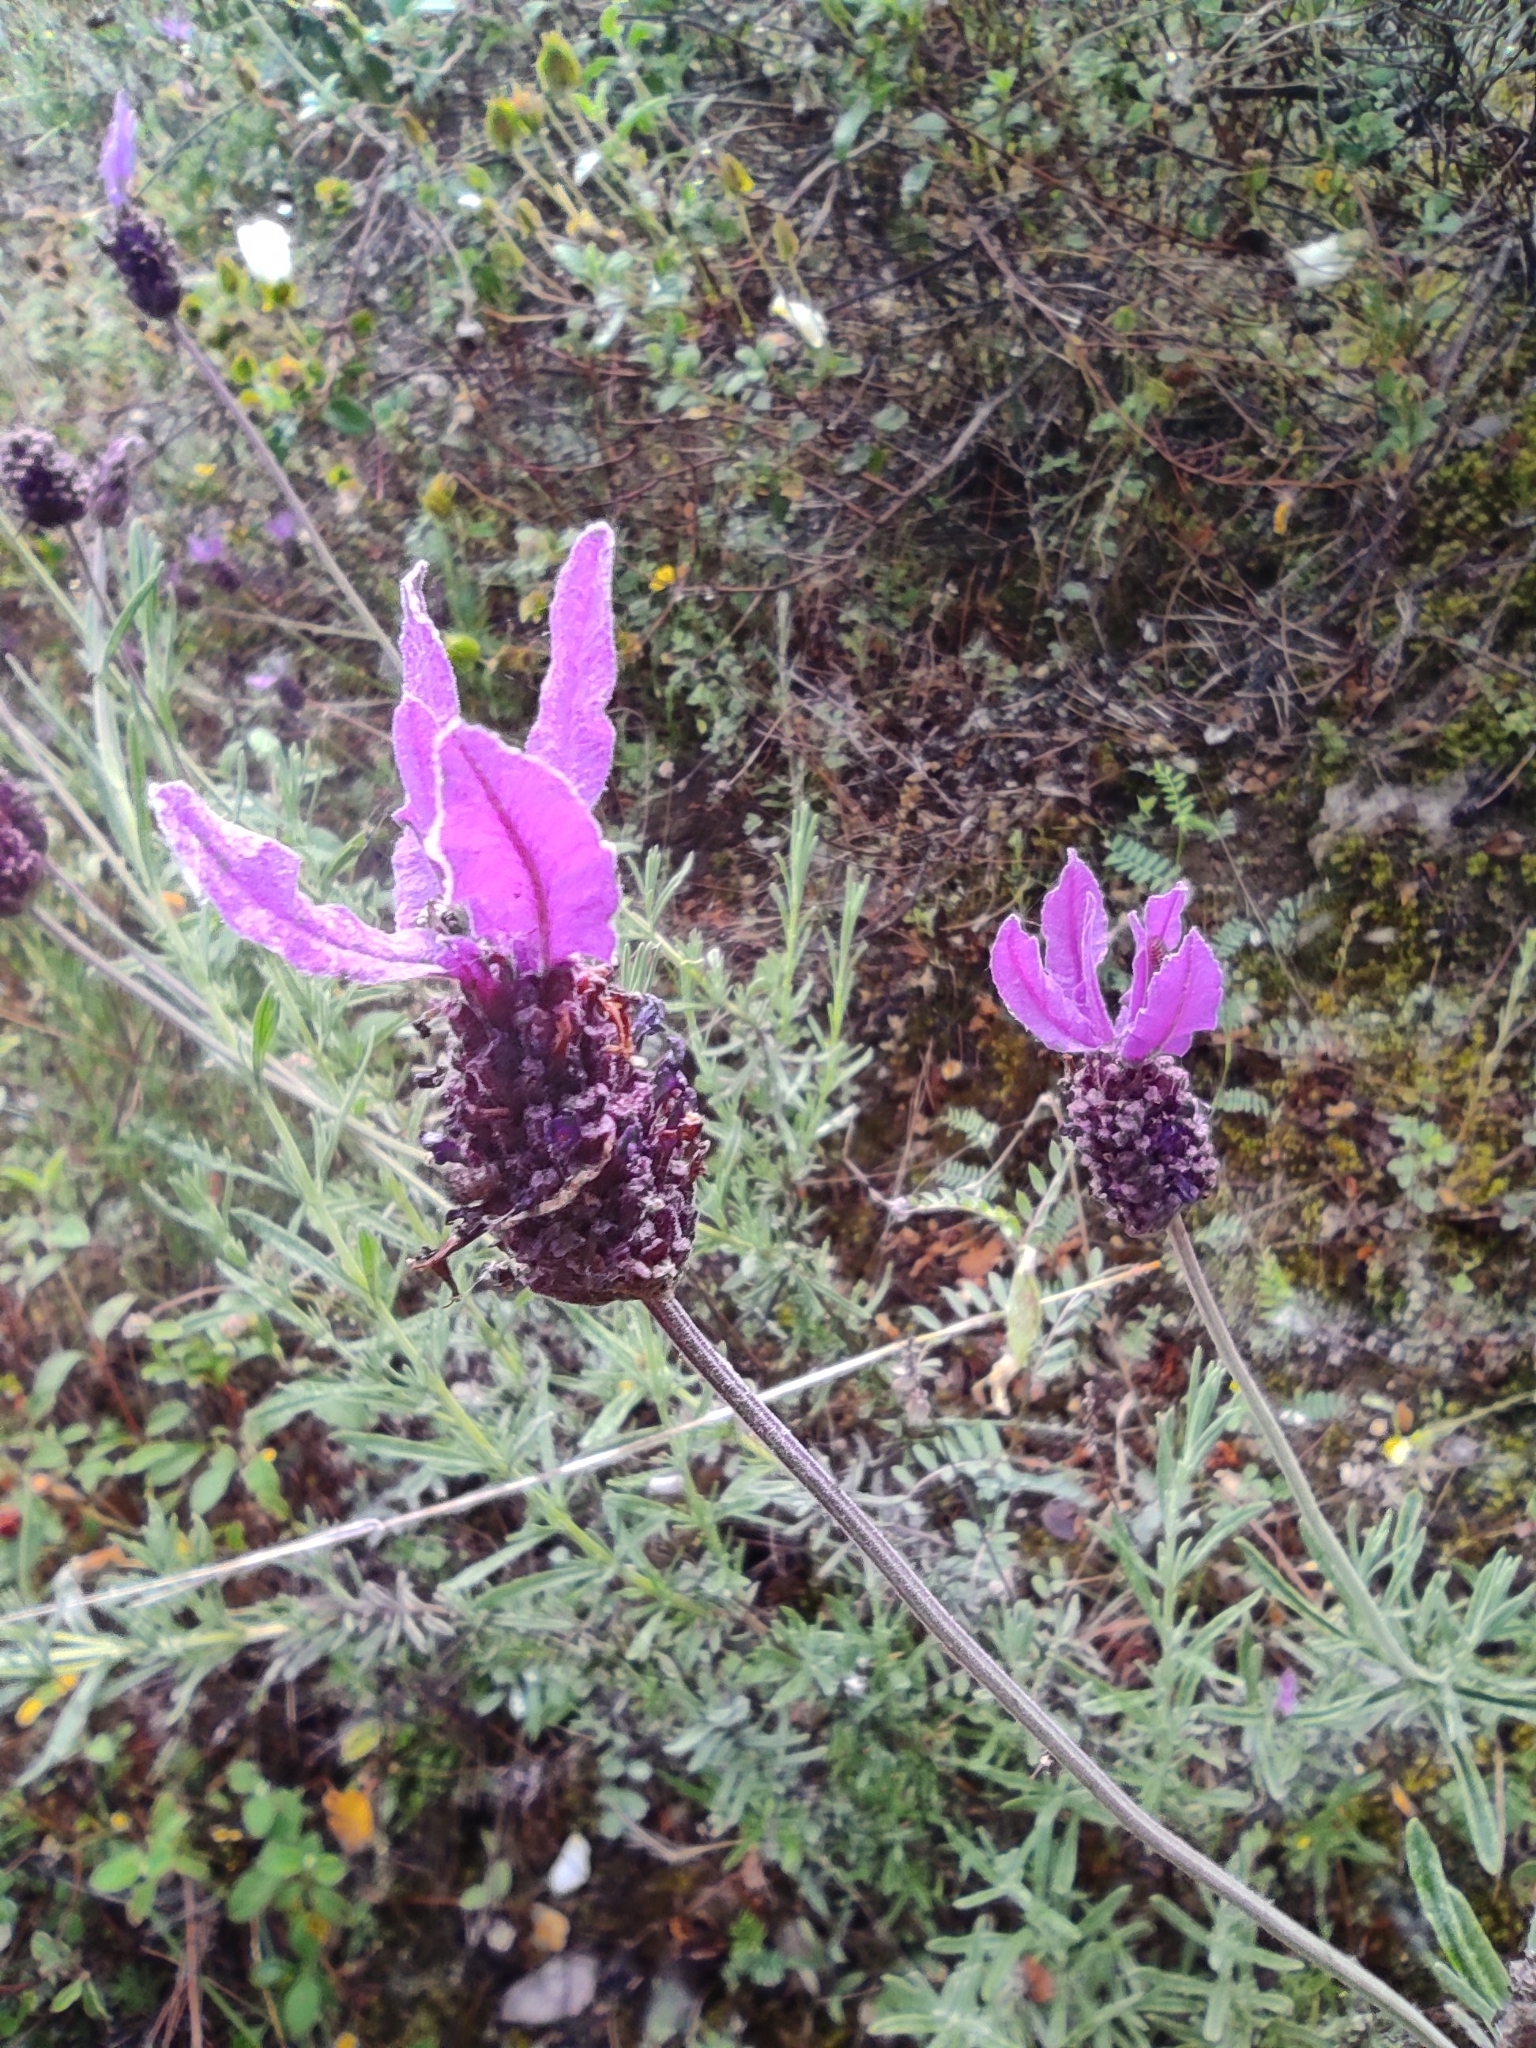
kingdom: Plantae
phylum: Tracheophyta
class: Magnoliopsida
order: Lamiales
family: Lamiaceae
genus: Lavandula
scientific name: Lavandula pedunculata
